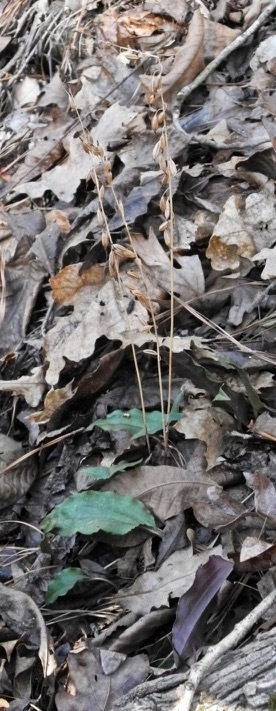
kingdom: Plantae
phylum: Tracheophyta
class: Liliopsida
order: Asparagales
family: Orchidaceae
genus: Tipularia
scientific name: Tipularia discolor
